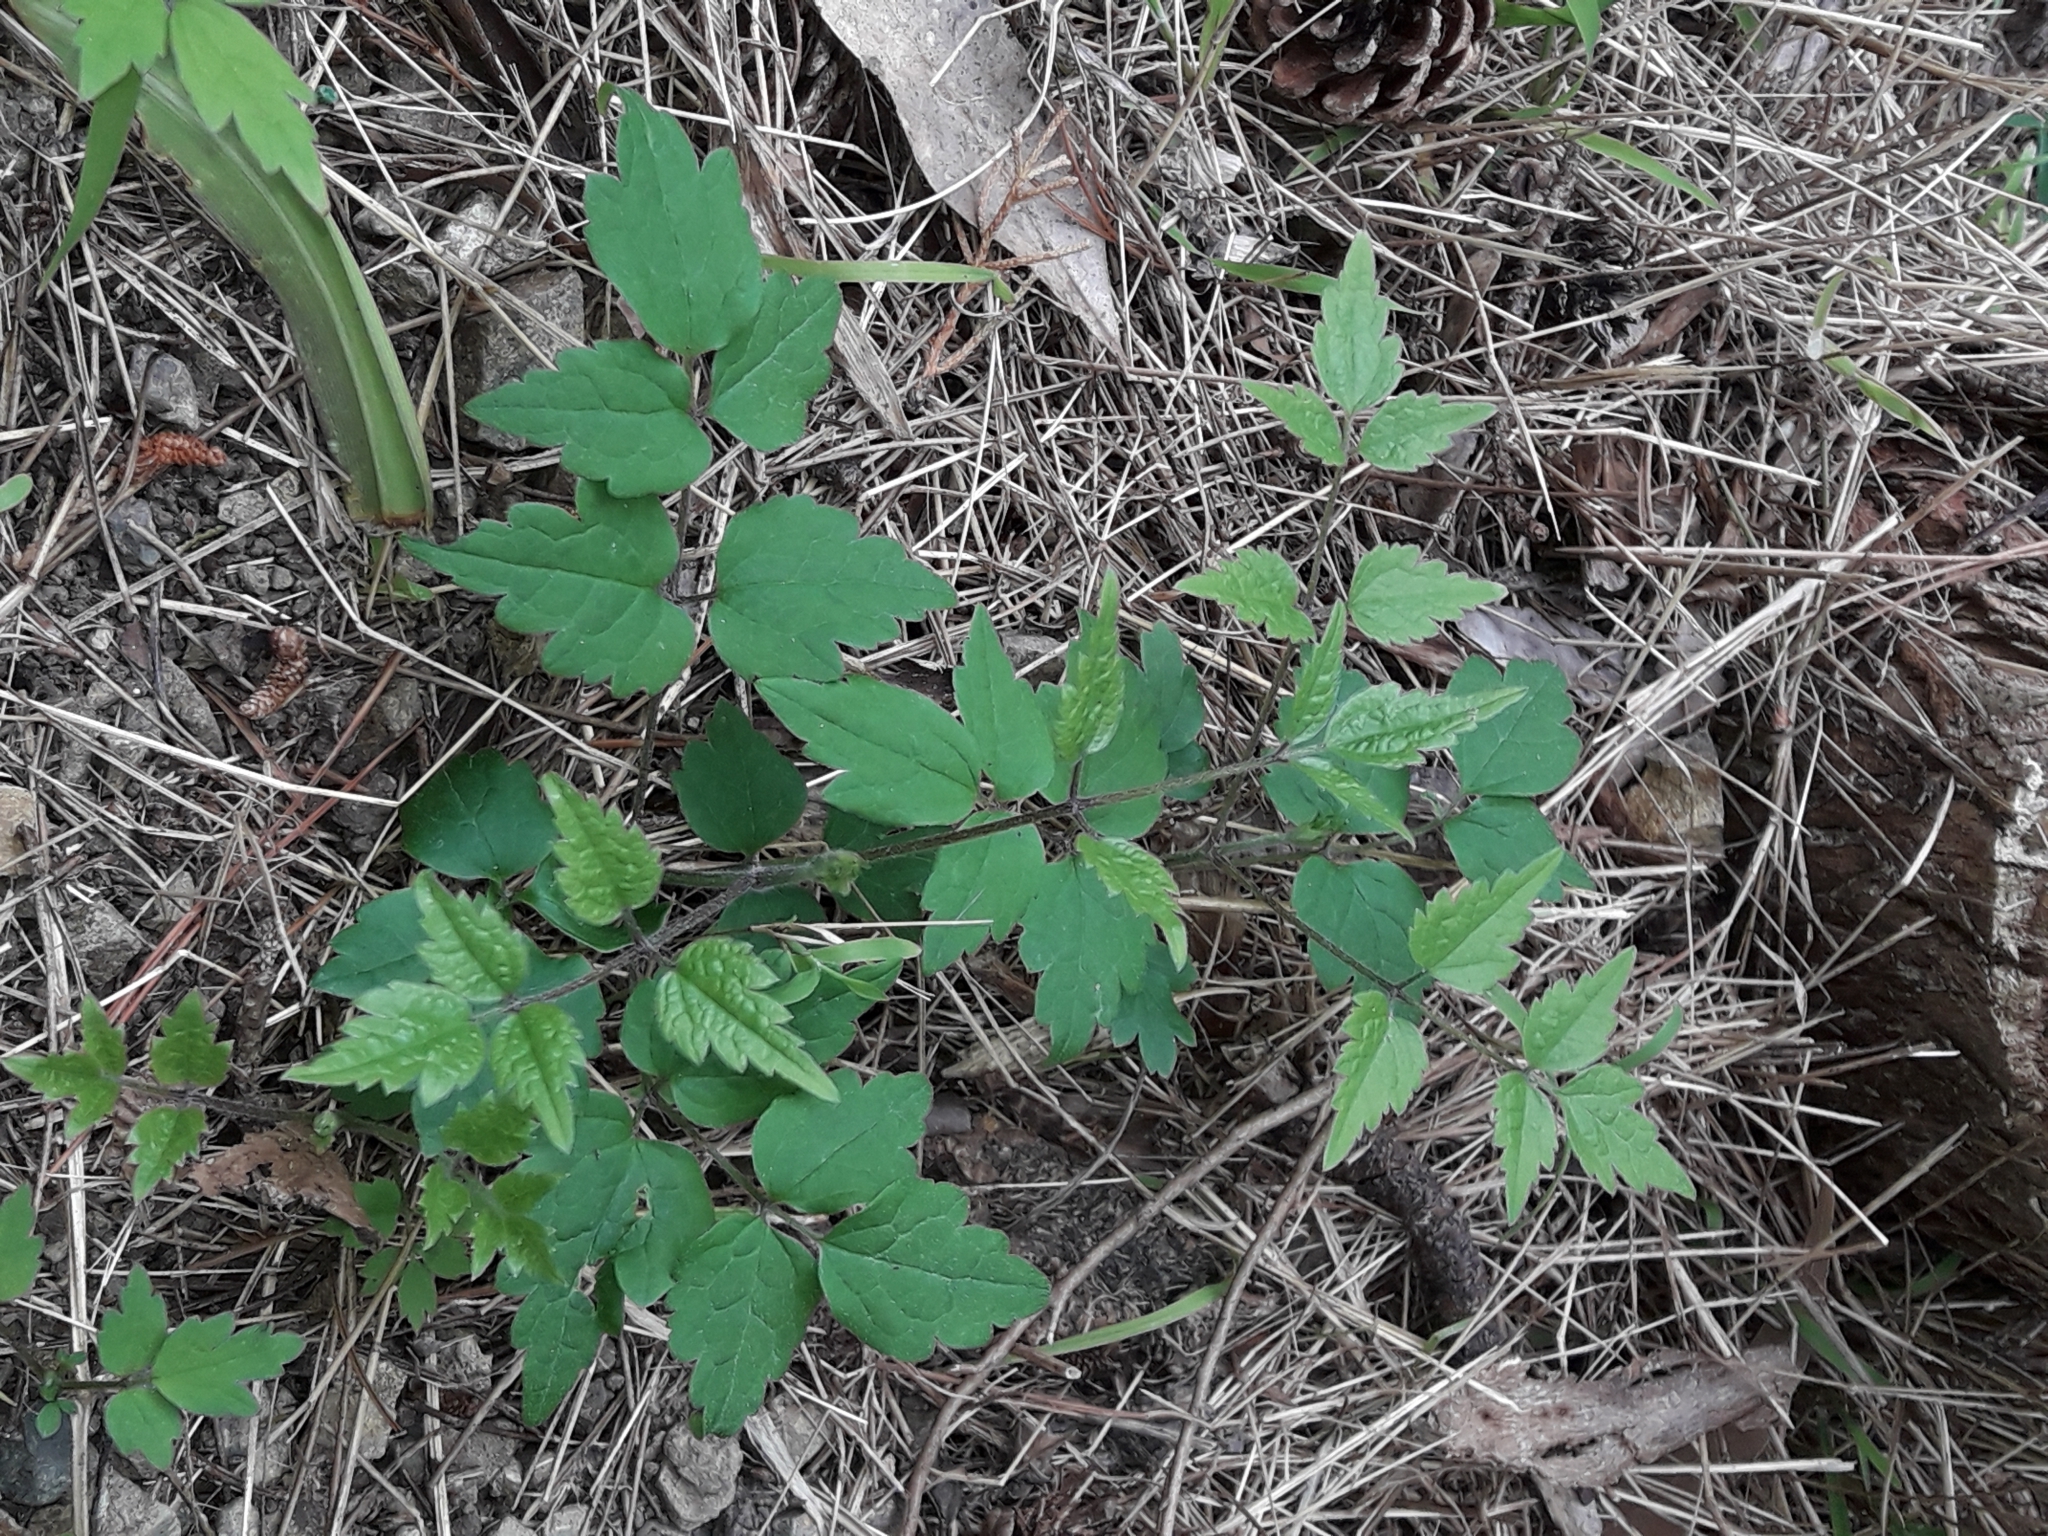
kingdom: Plantae
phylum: Tracheophyta
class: Magnoliopsida
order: Ranunculales
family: Ranunculaceae
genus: Clematis
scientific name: Clematis vitalba
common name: Evergreen clematis
